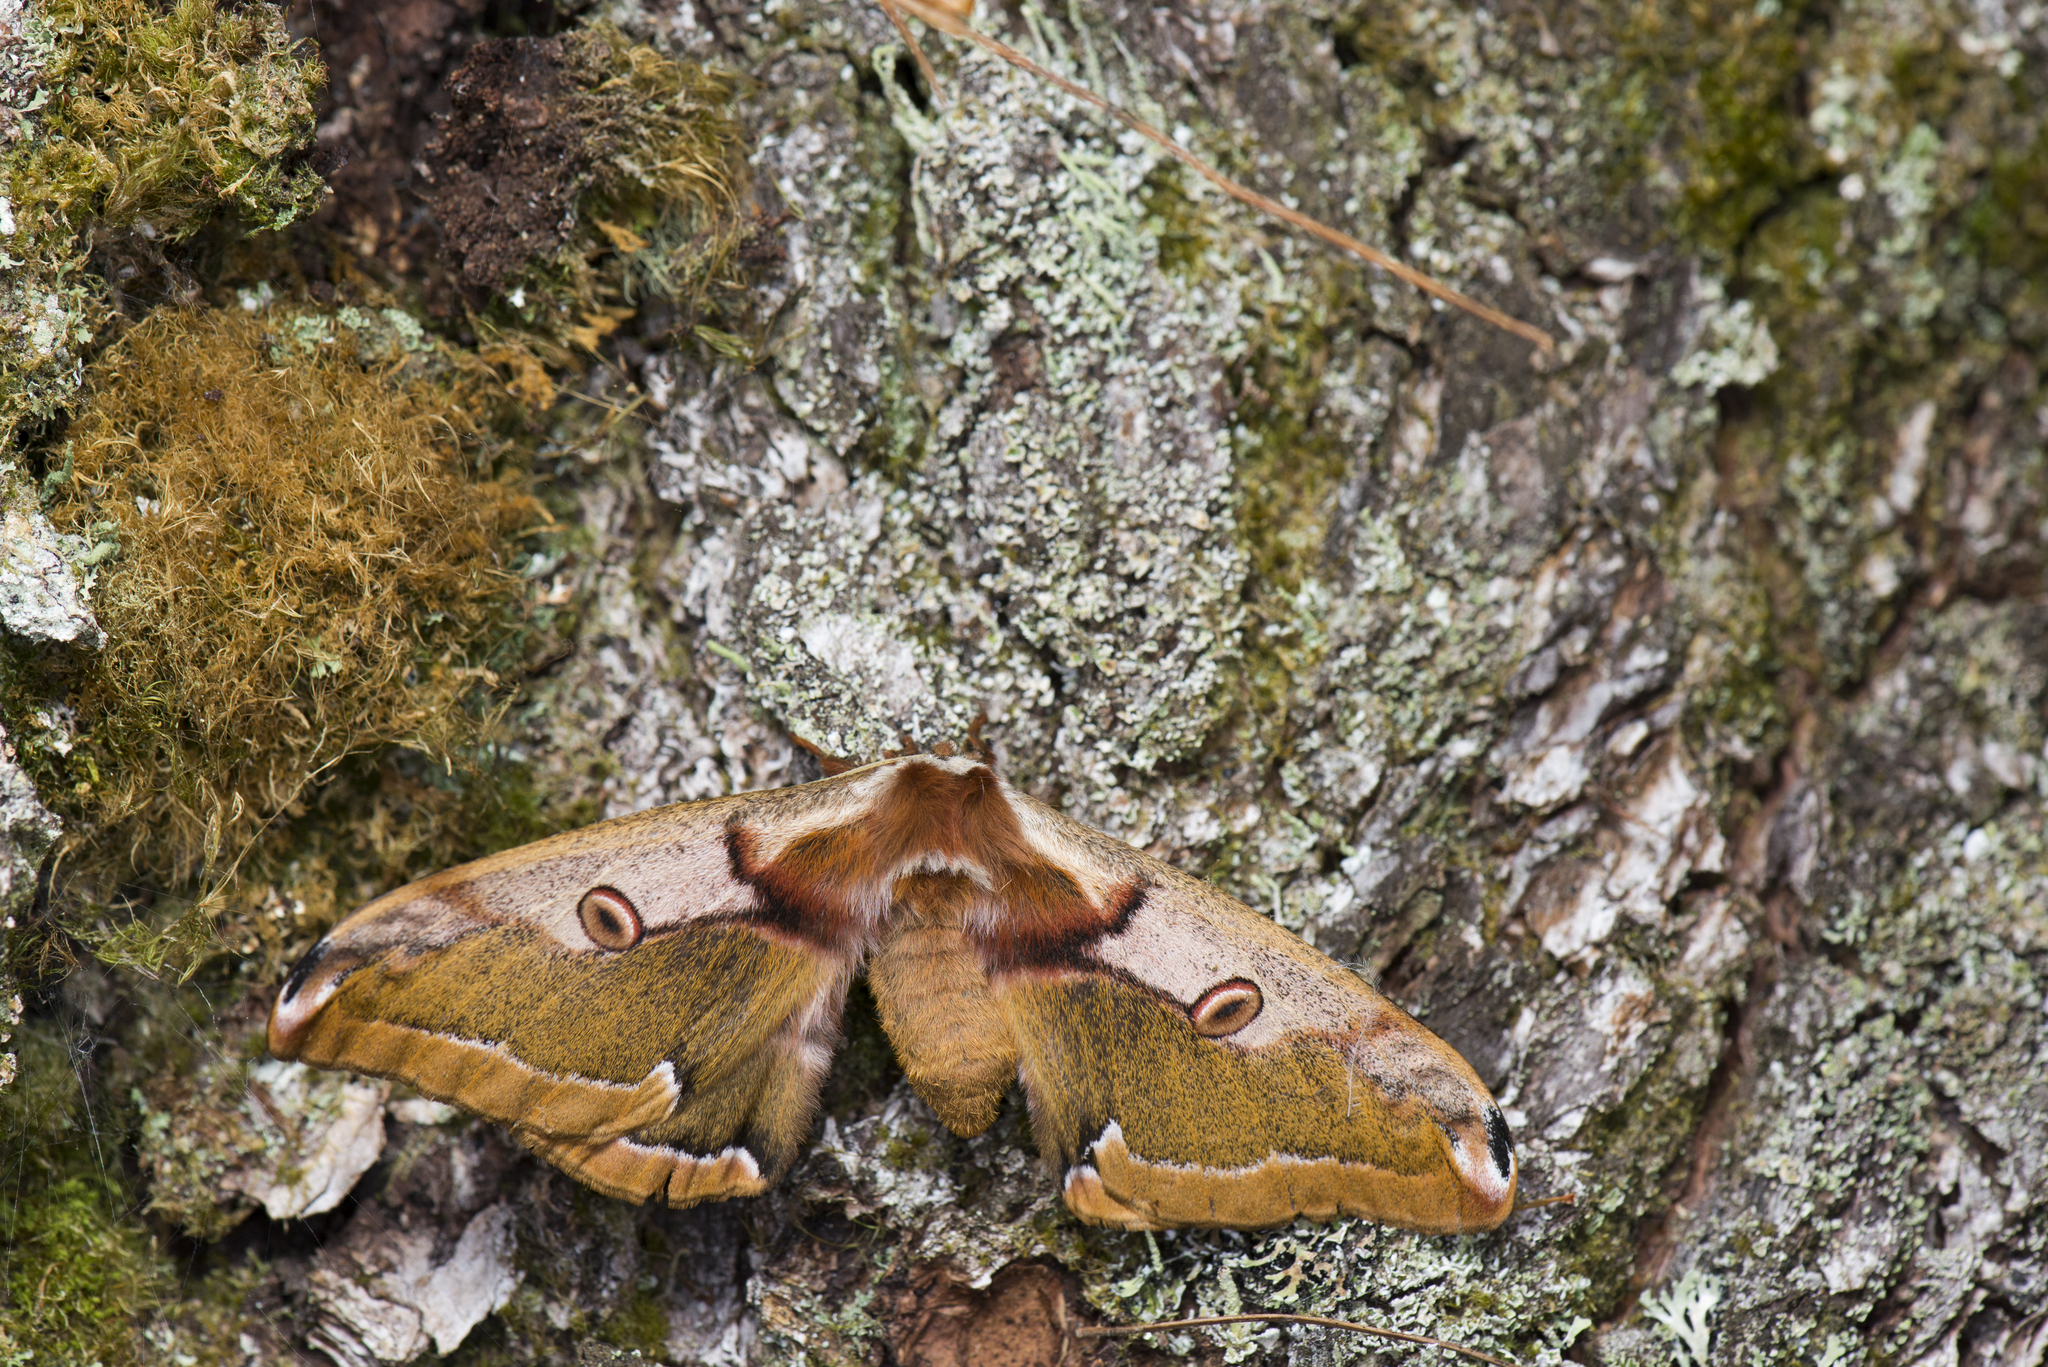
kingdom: Animalia
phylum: Arthropoda
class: Insecta
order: Lepidoptera
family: Saturniidae
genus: Rinaca
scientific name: Rinaca fukudai
